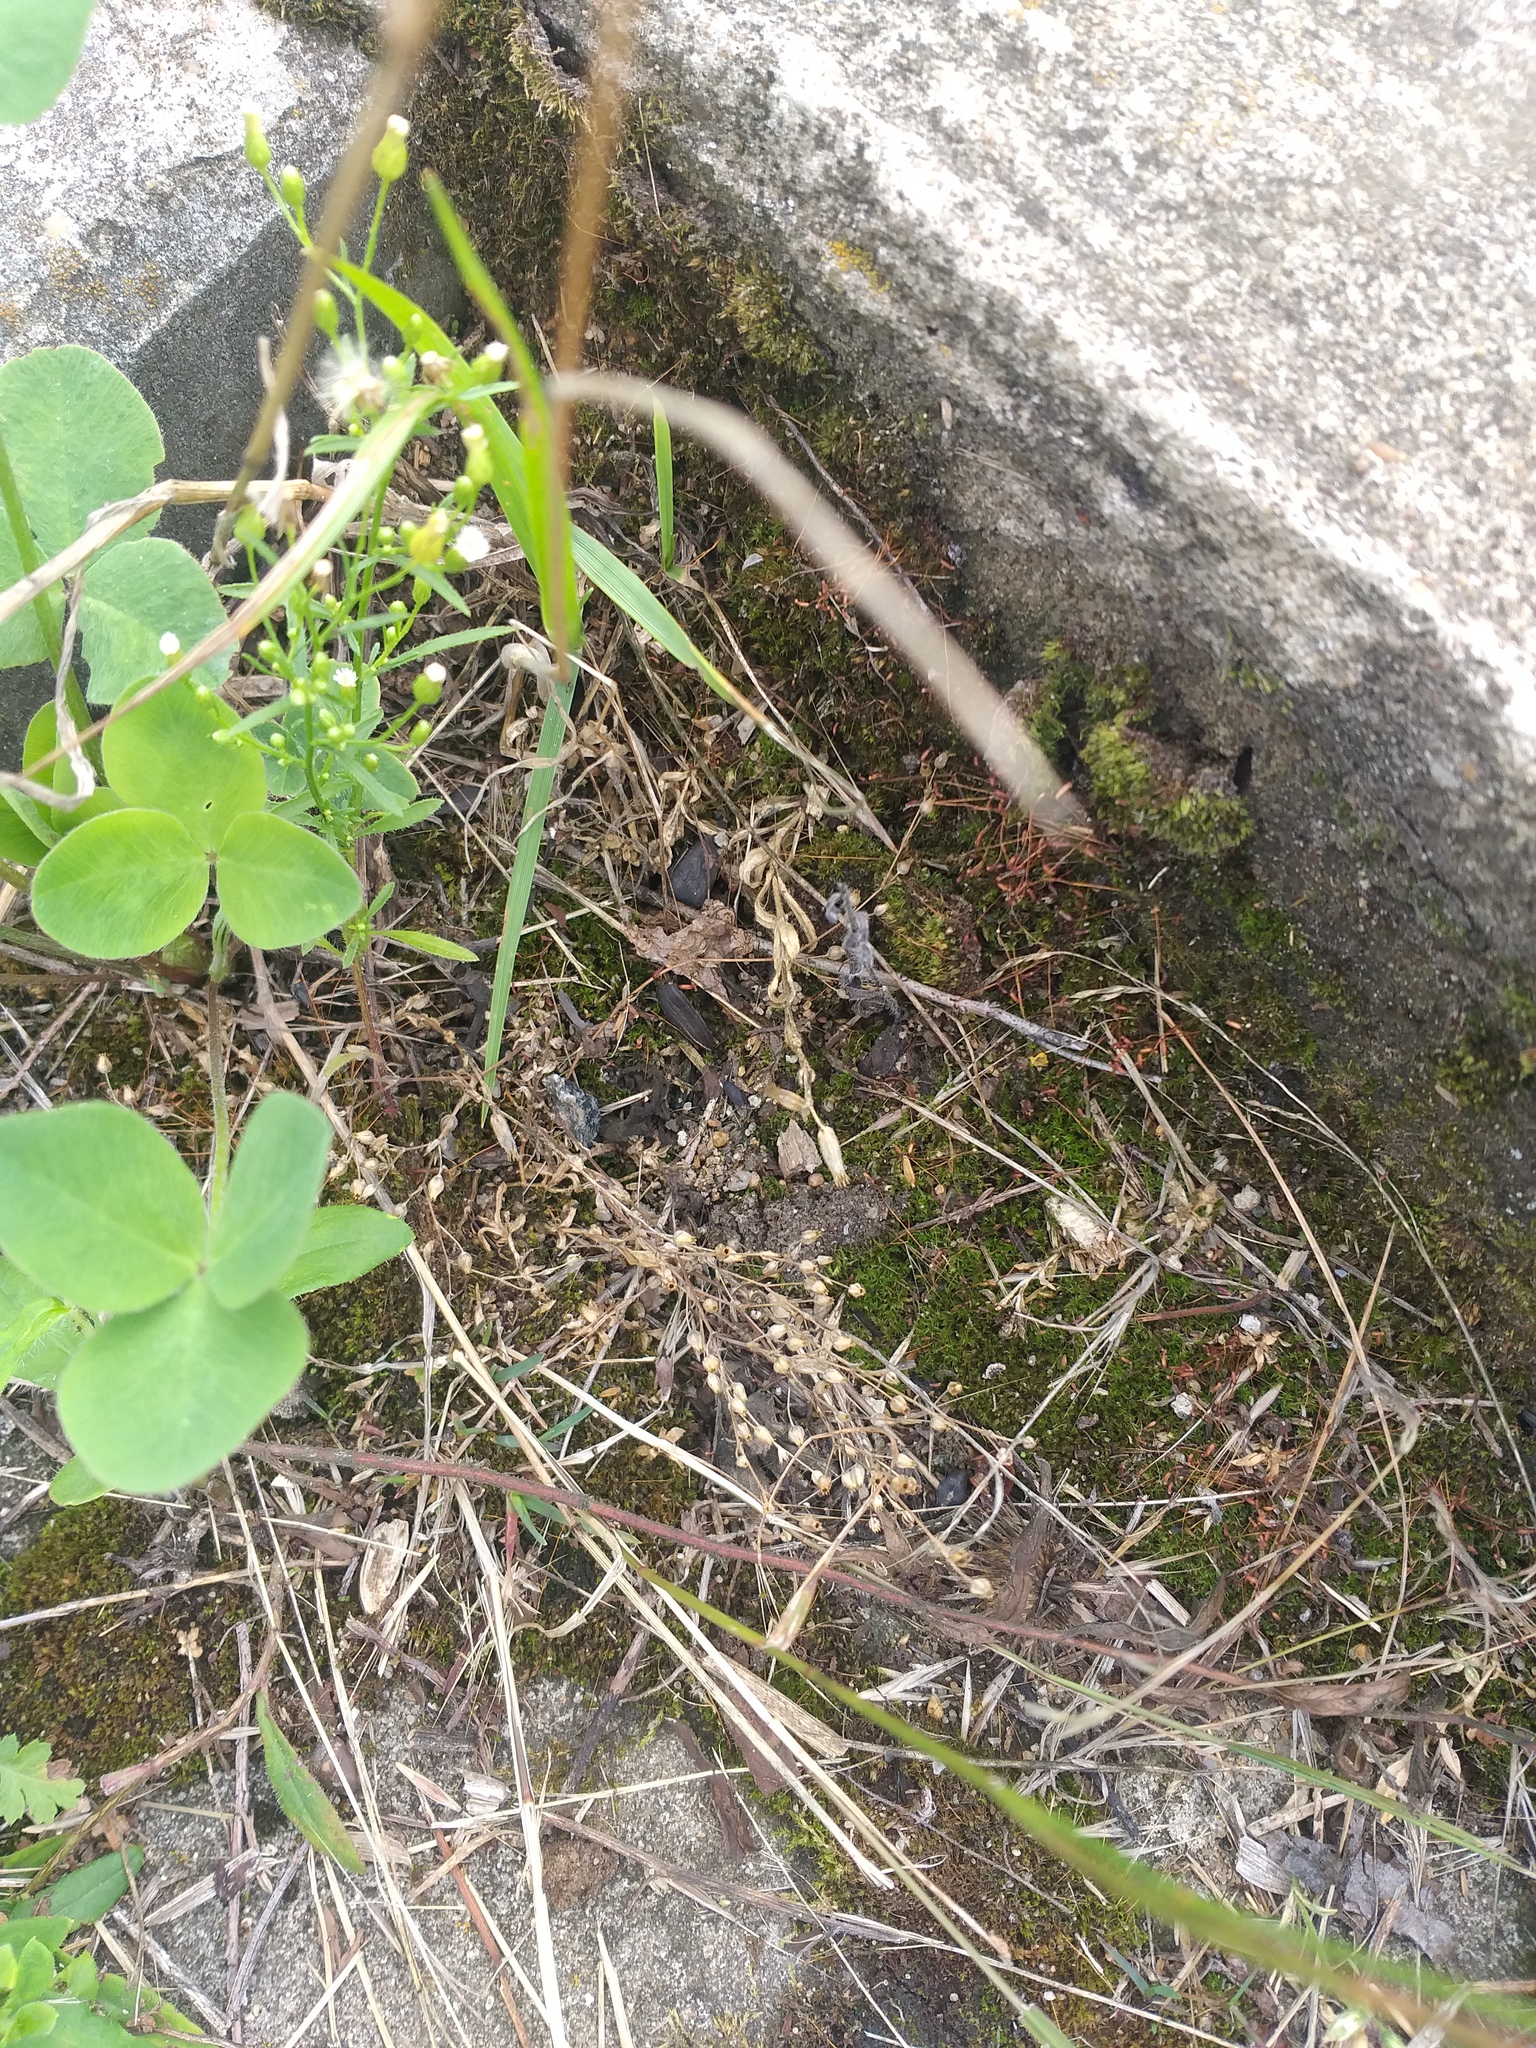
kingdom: Plantae
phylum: Tracheophyta
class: Magnoliopsida
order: Caryophyllales
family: Caryophyllaceae
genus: Arenaria
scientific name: Arenaria serpyllifolia
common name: Thyme-leaved sandwort
